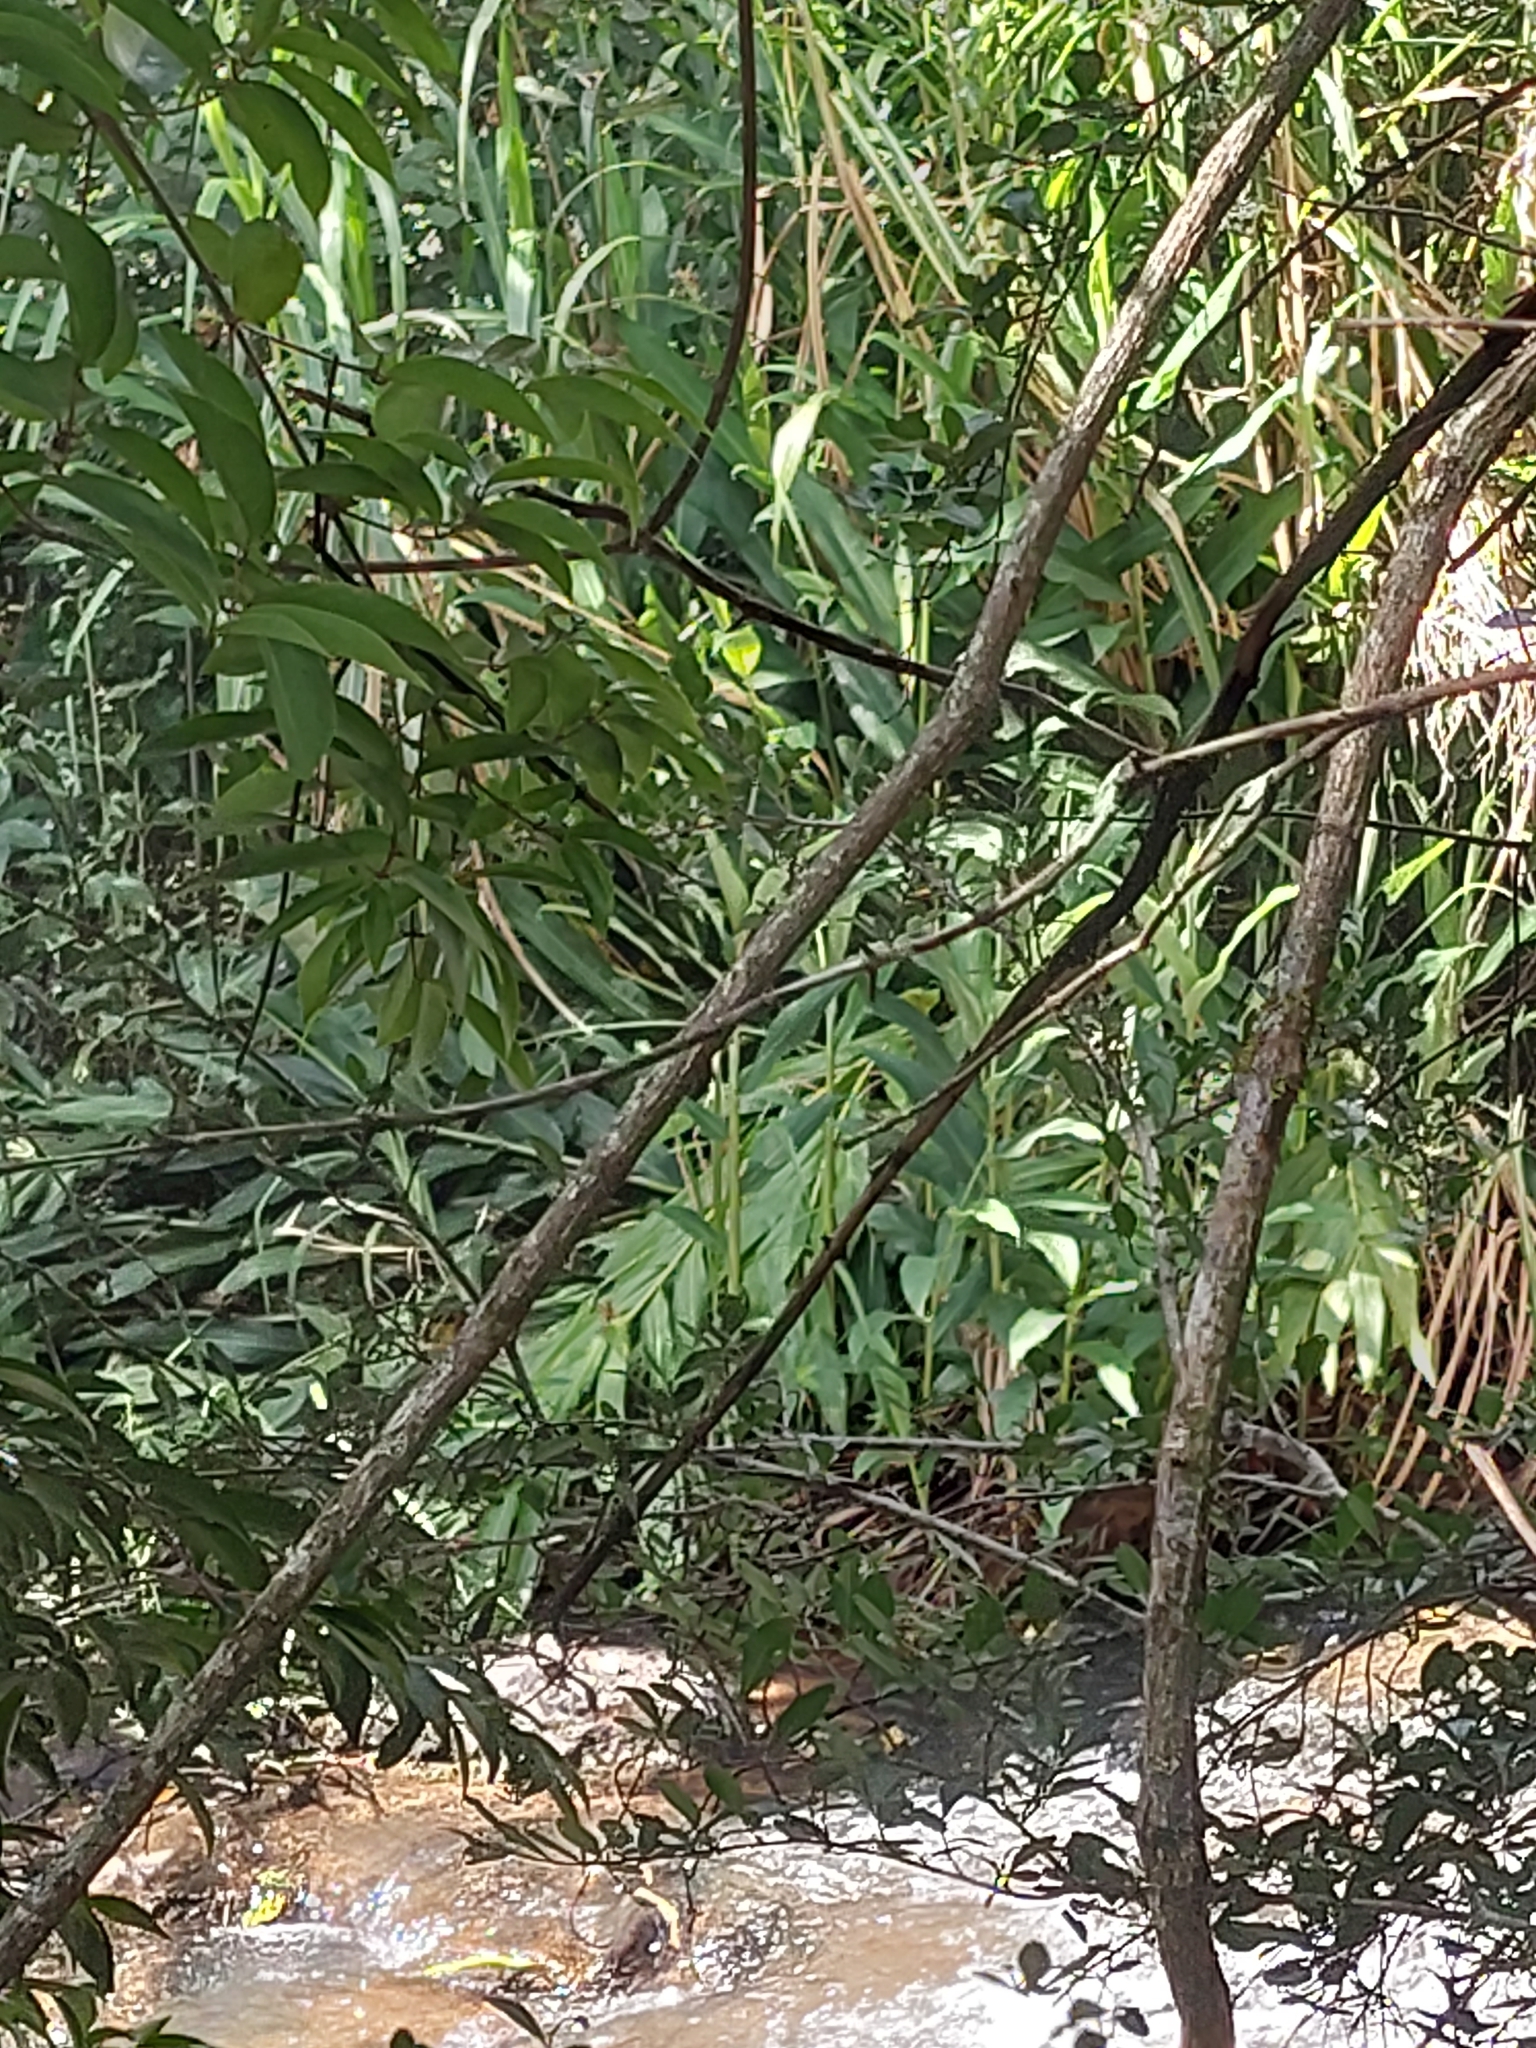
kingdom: Plantae
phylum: Tracheophyta
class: Liliopsida
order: Zingiberales
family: Zingiberaceae
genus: Hedychium
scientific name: Hedychium coronarium
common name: White garland-lily
